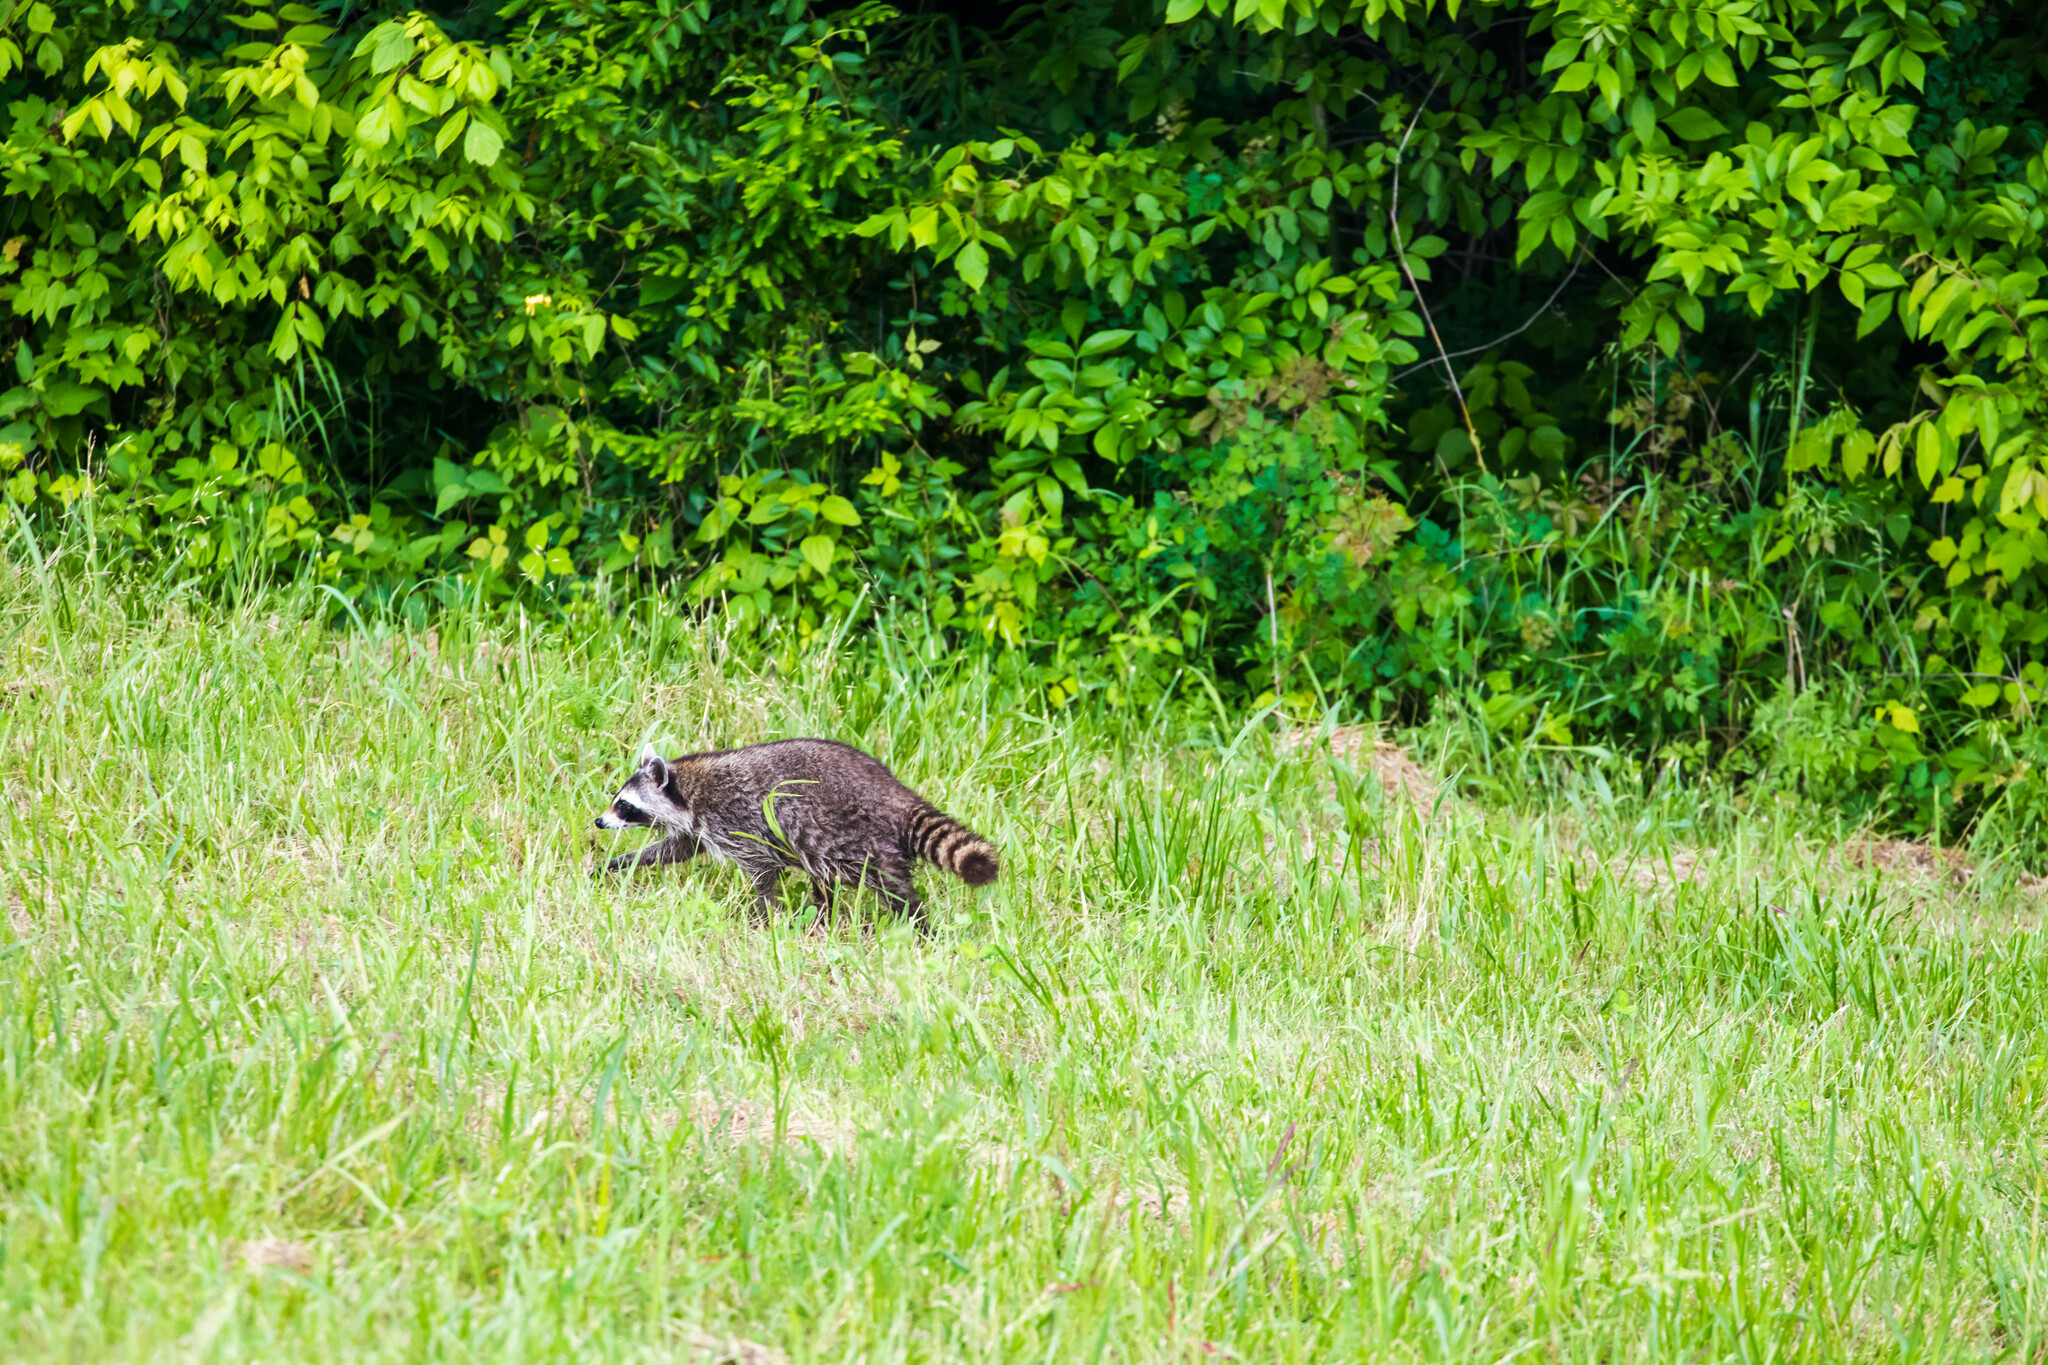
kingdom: Animalia
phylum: Chordata
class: Mammalia
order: Carnivora
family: Procyonidae
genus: Procyon
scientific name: Procyon lotor
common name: Raccoon
